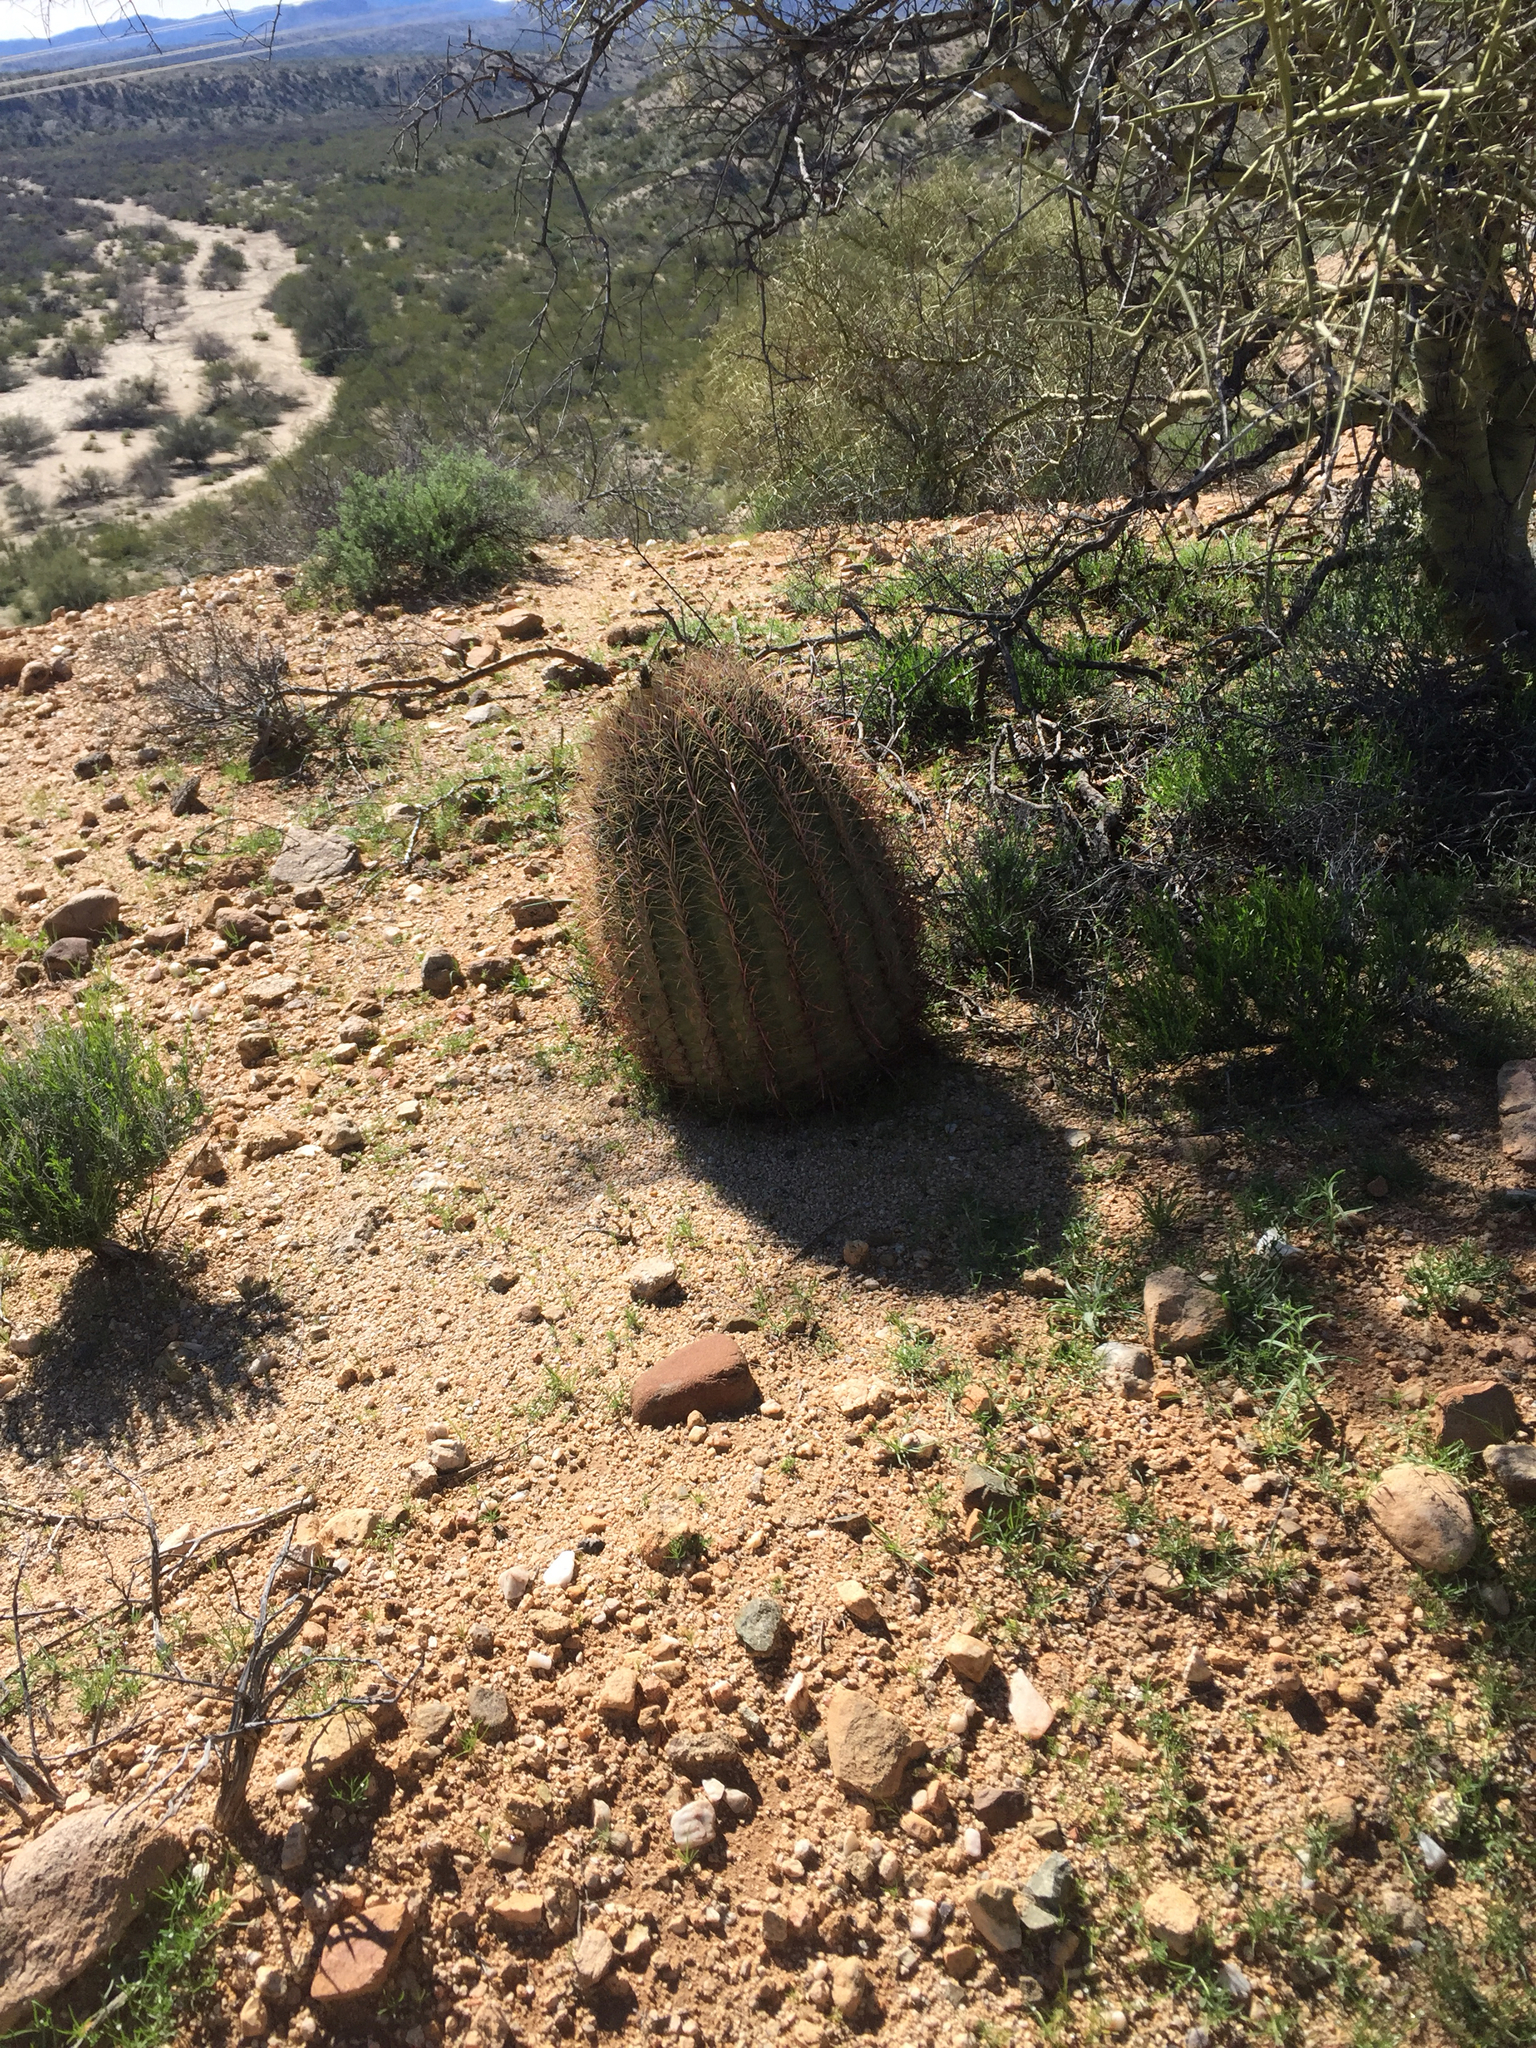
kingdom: Plantae
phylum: Tracheophyta
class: Magnoliopsida
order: Caryophyllales
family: Cactaceae
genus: Ferocactus
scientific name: Ferocactus cylindraceus
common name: California barrel cactus
